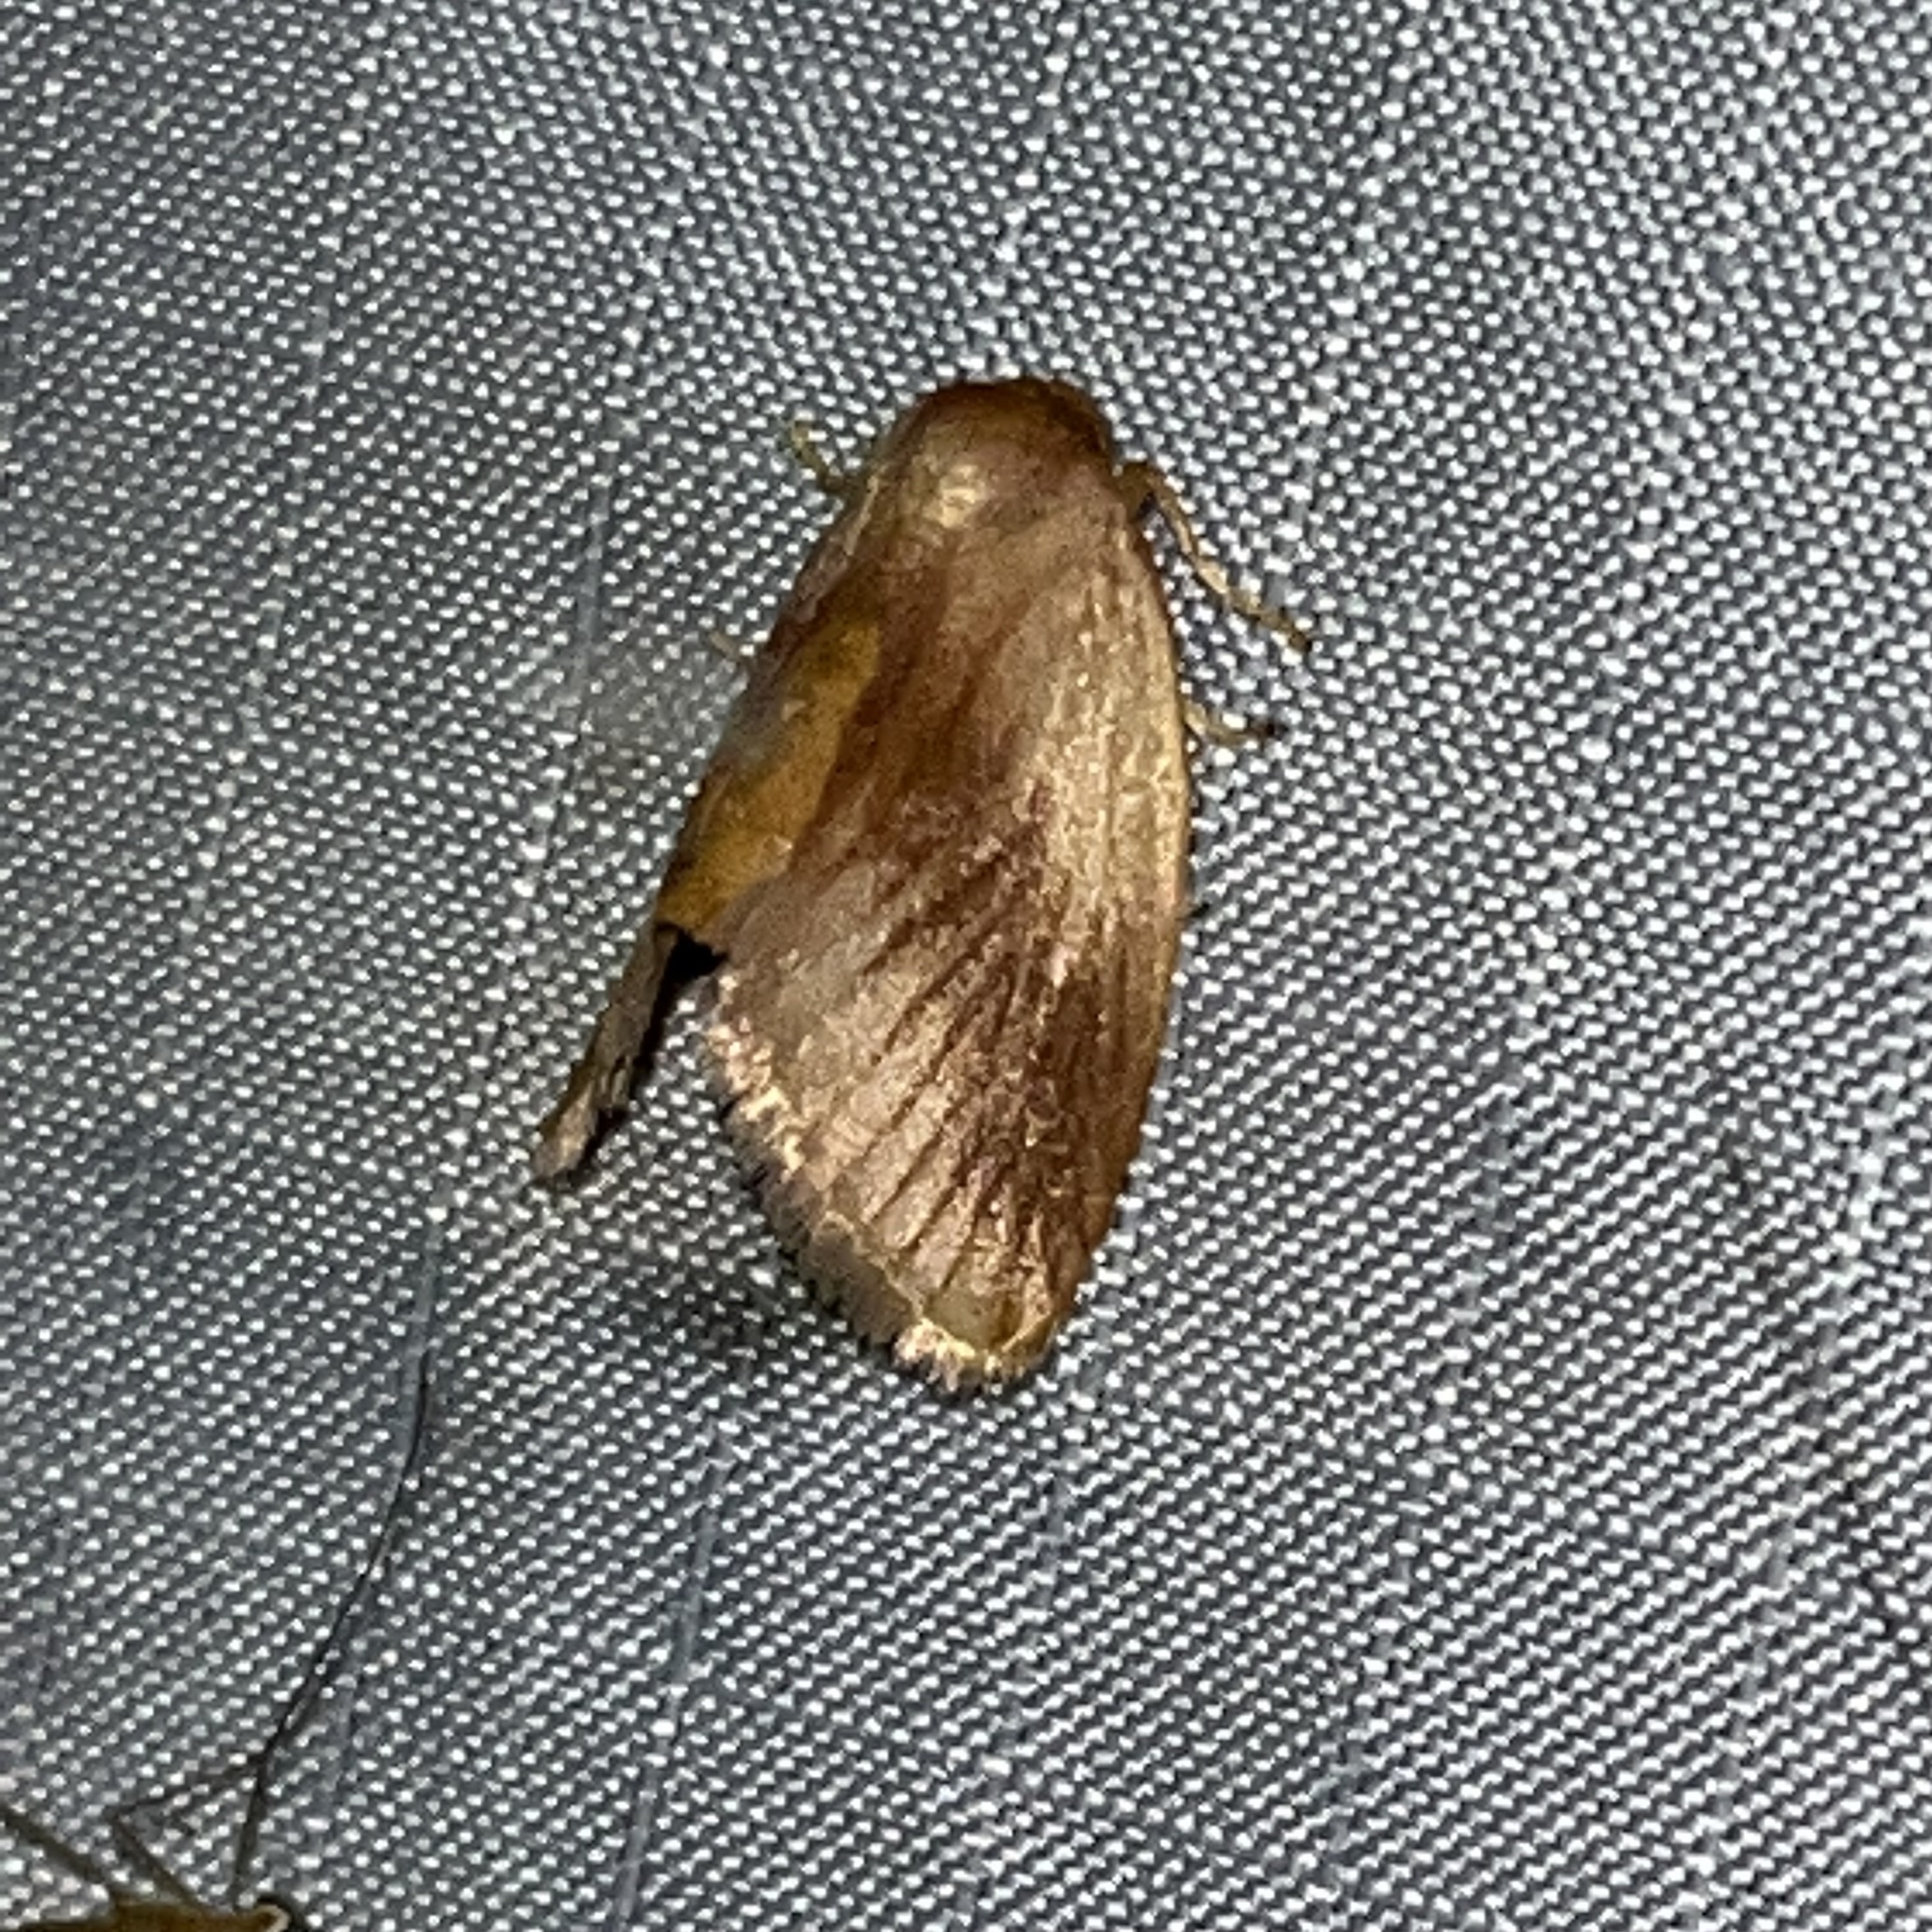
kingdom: Animalia
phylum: Arthropoda
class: Insecta
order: Lepidoptera
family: Limacodidae
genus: Tortricidia
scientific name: Tortricidia testacea
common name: Early button slug moth
